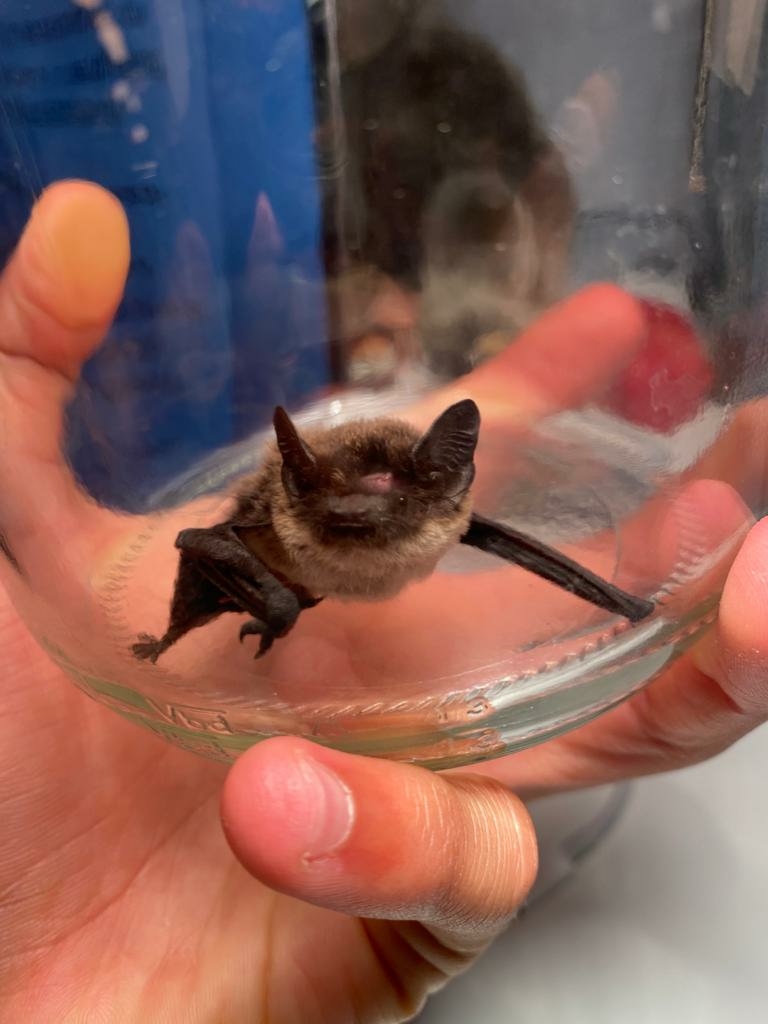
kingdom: Animalia
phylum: Chordata
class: Mammalia
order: Chiroptera
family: Vespertilionidae
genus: Hypsugo
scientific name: Hypsugo savii
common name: Savi's pipistrelle
